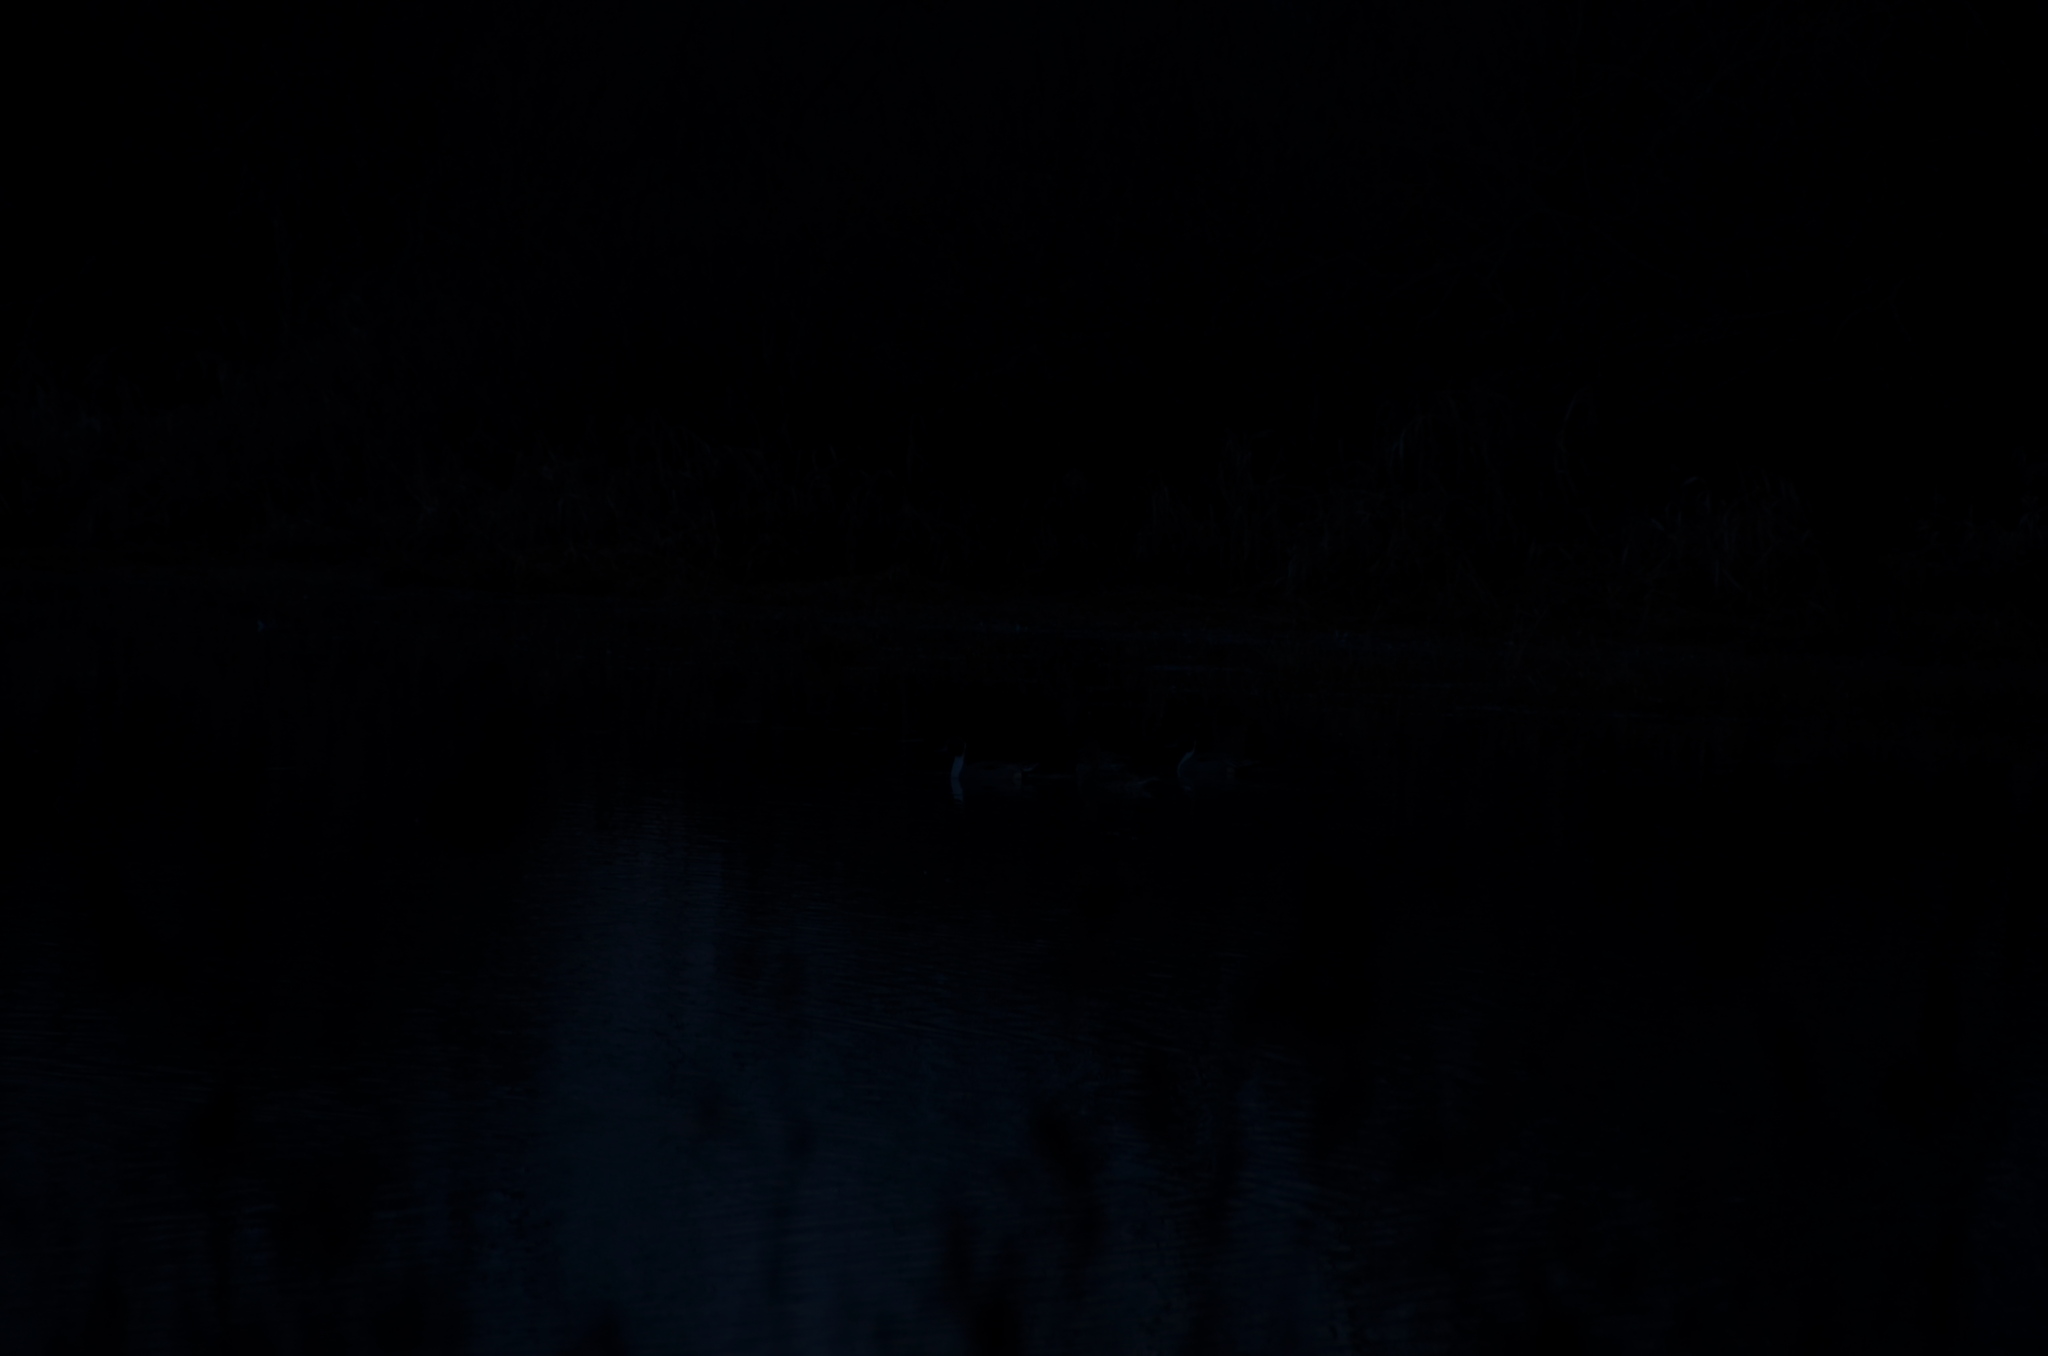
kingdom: Animalia
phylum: Chordata
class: Aves
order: Anseriformes
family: Anatidae
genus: Anas
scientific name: Anas acuta
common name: Northern pintail
